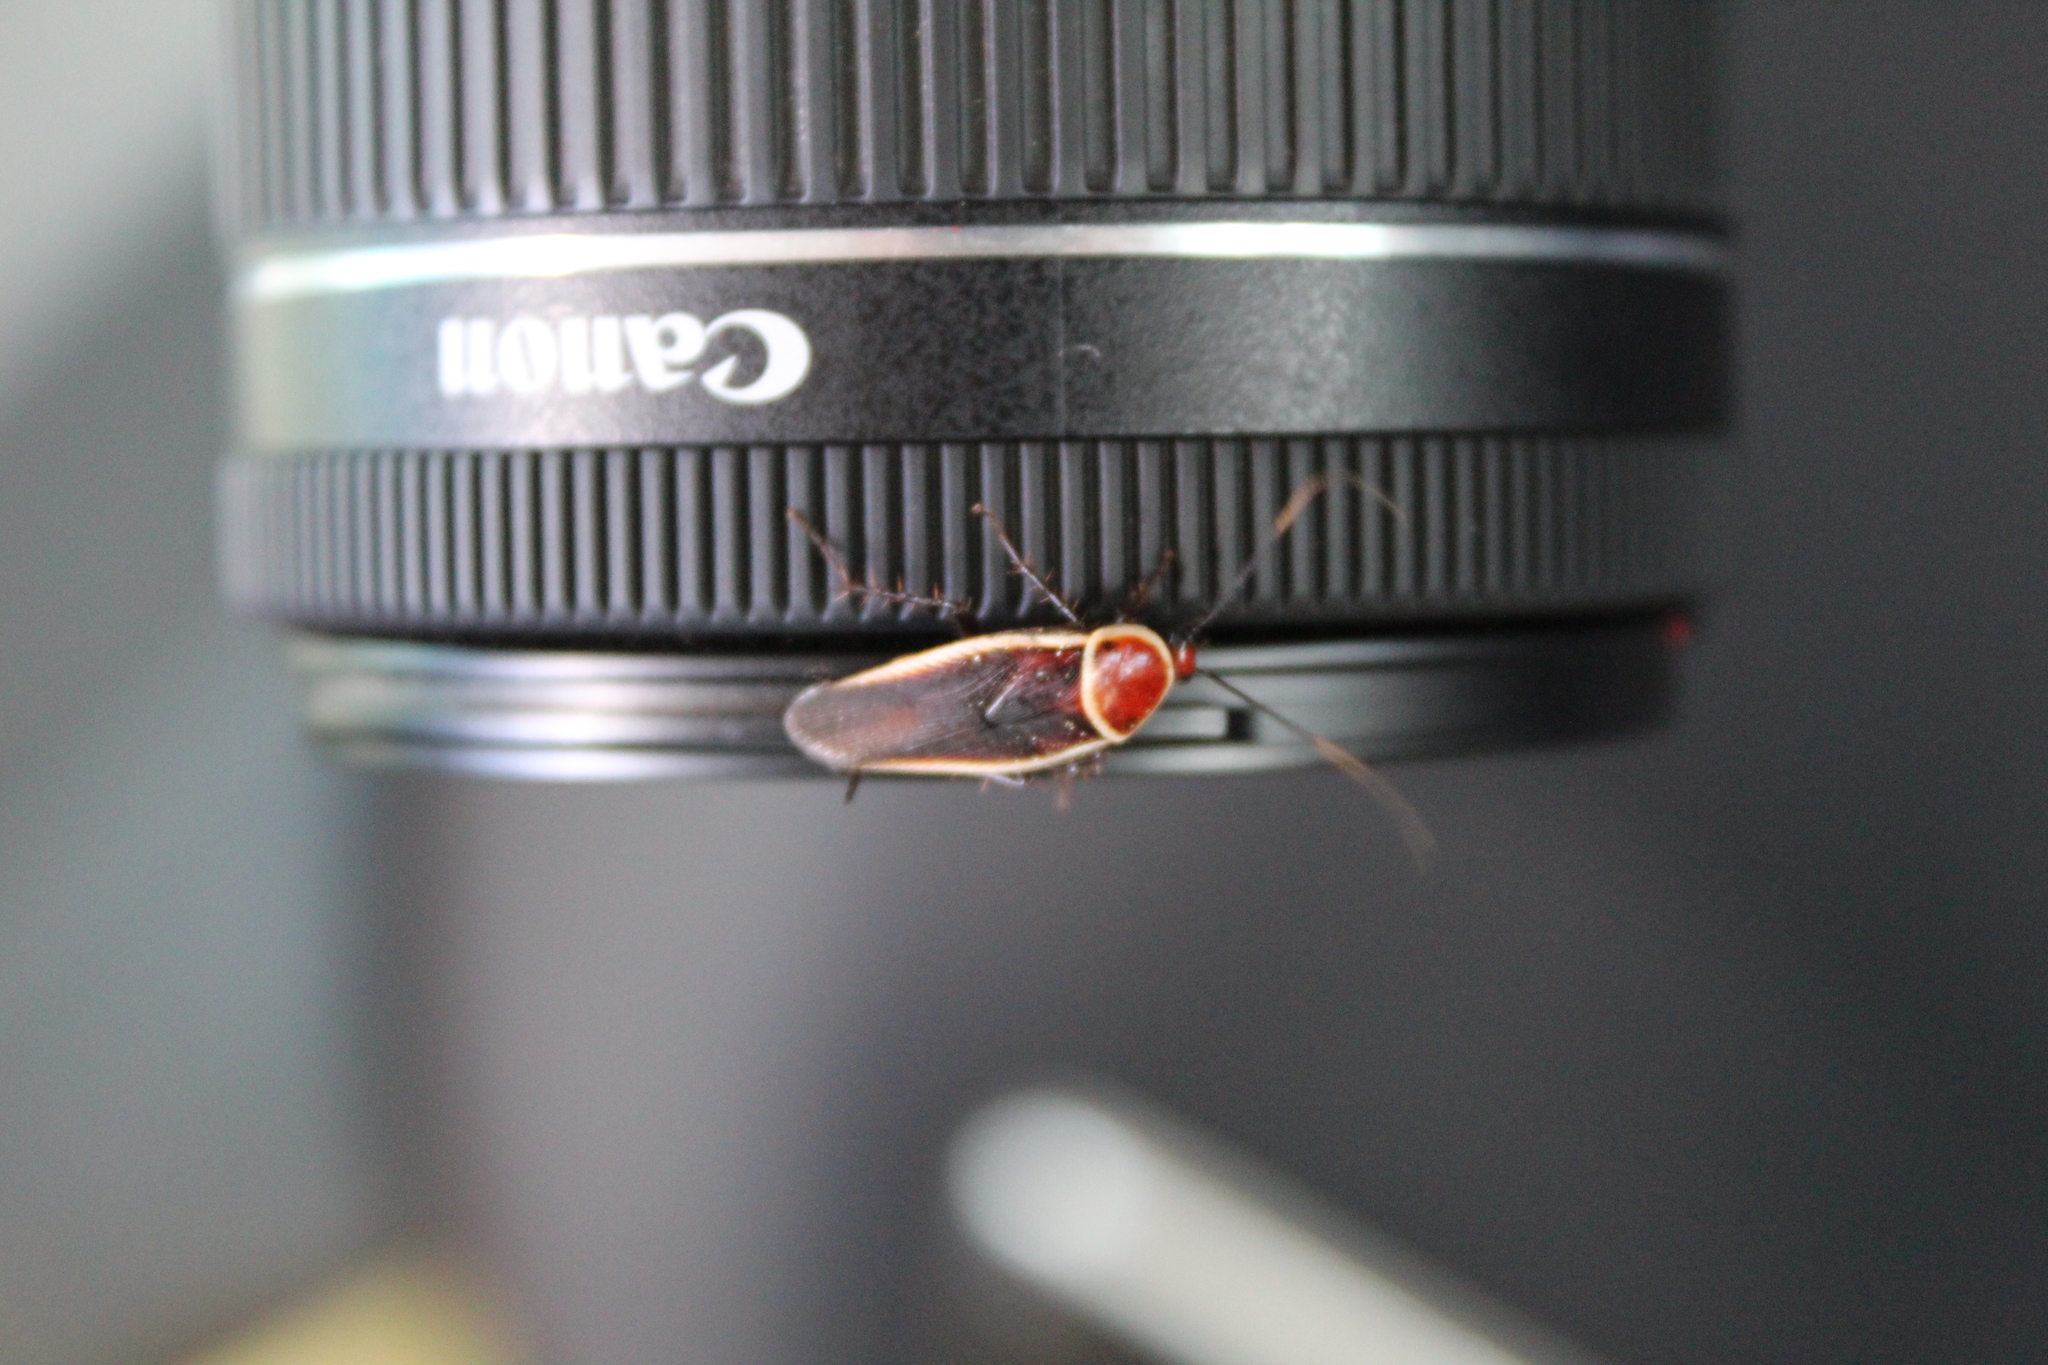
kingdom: Animalia
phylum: Arthropoda
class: Insecta
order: Blattodea
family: Ectobiidae
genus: Pseudomops
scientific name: Pseudomops septentrionalis
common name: Pale-bordered field cockroach
